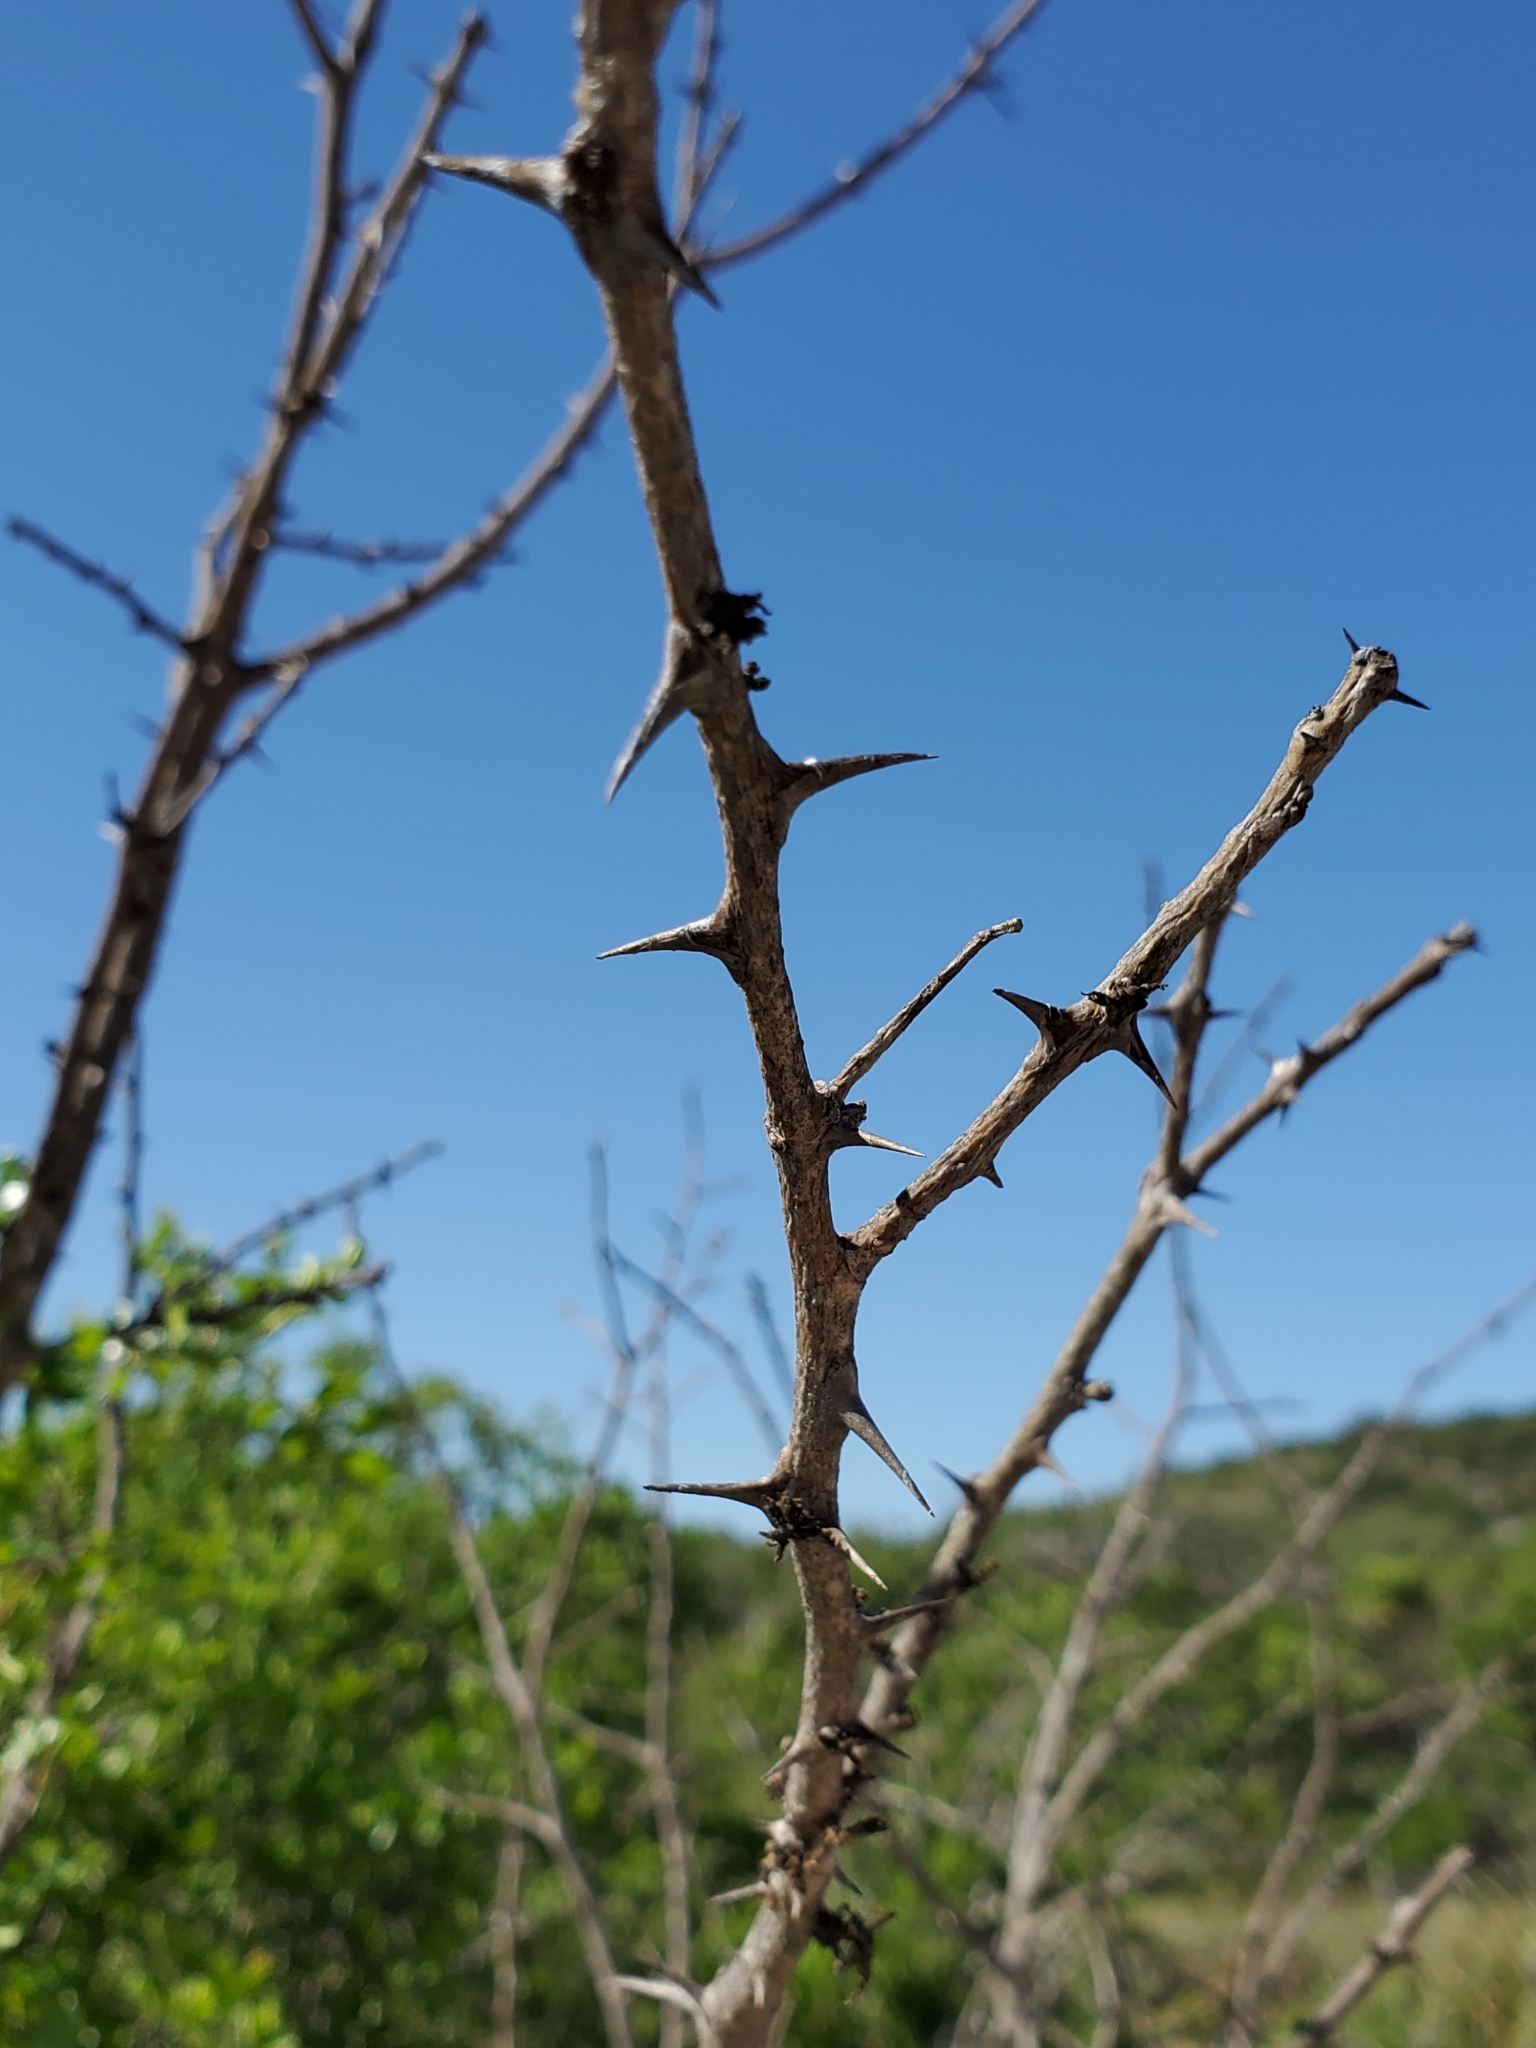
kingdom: Plantae
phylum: Tracheophyta
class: Magnoliopsida
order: Sapindales
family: Rutaceae
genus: Zanthoxylum
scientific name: Zanthoxylum clava-herculis
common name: Hercules'-club
